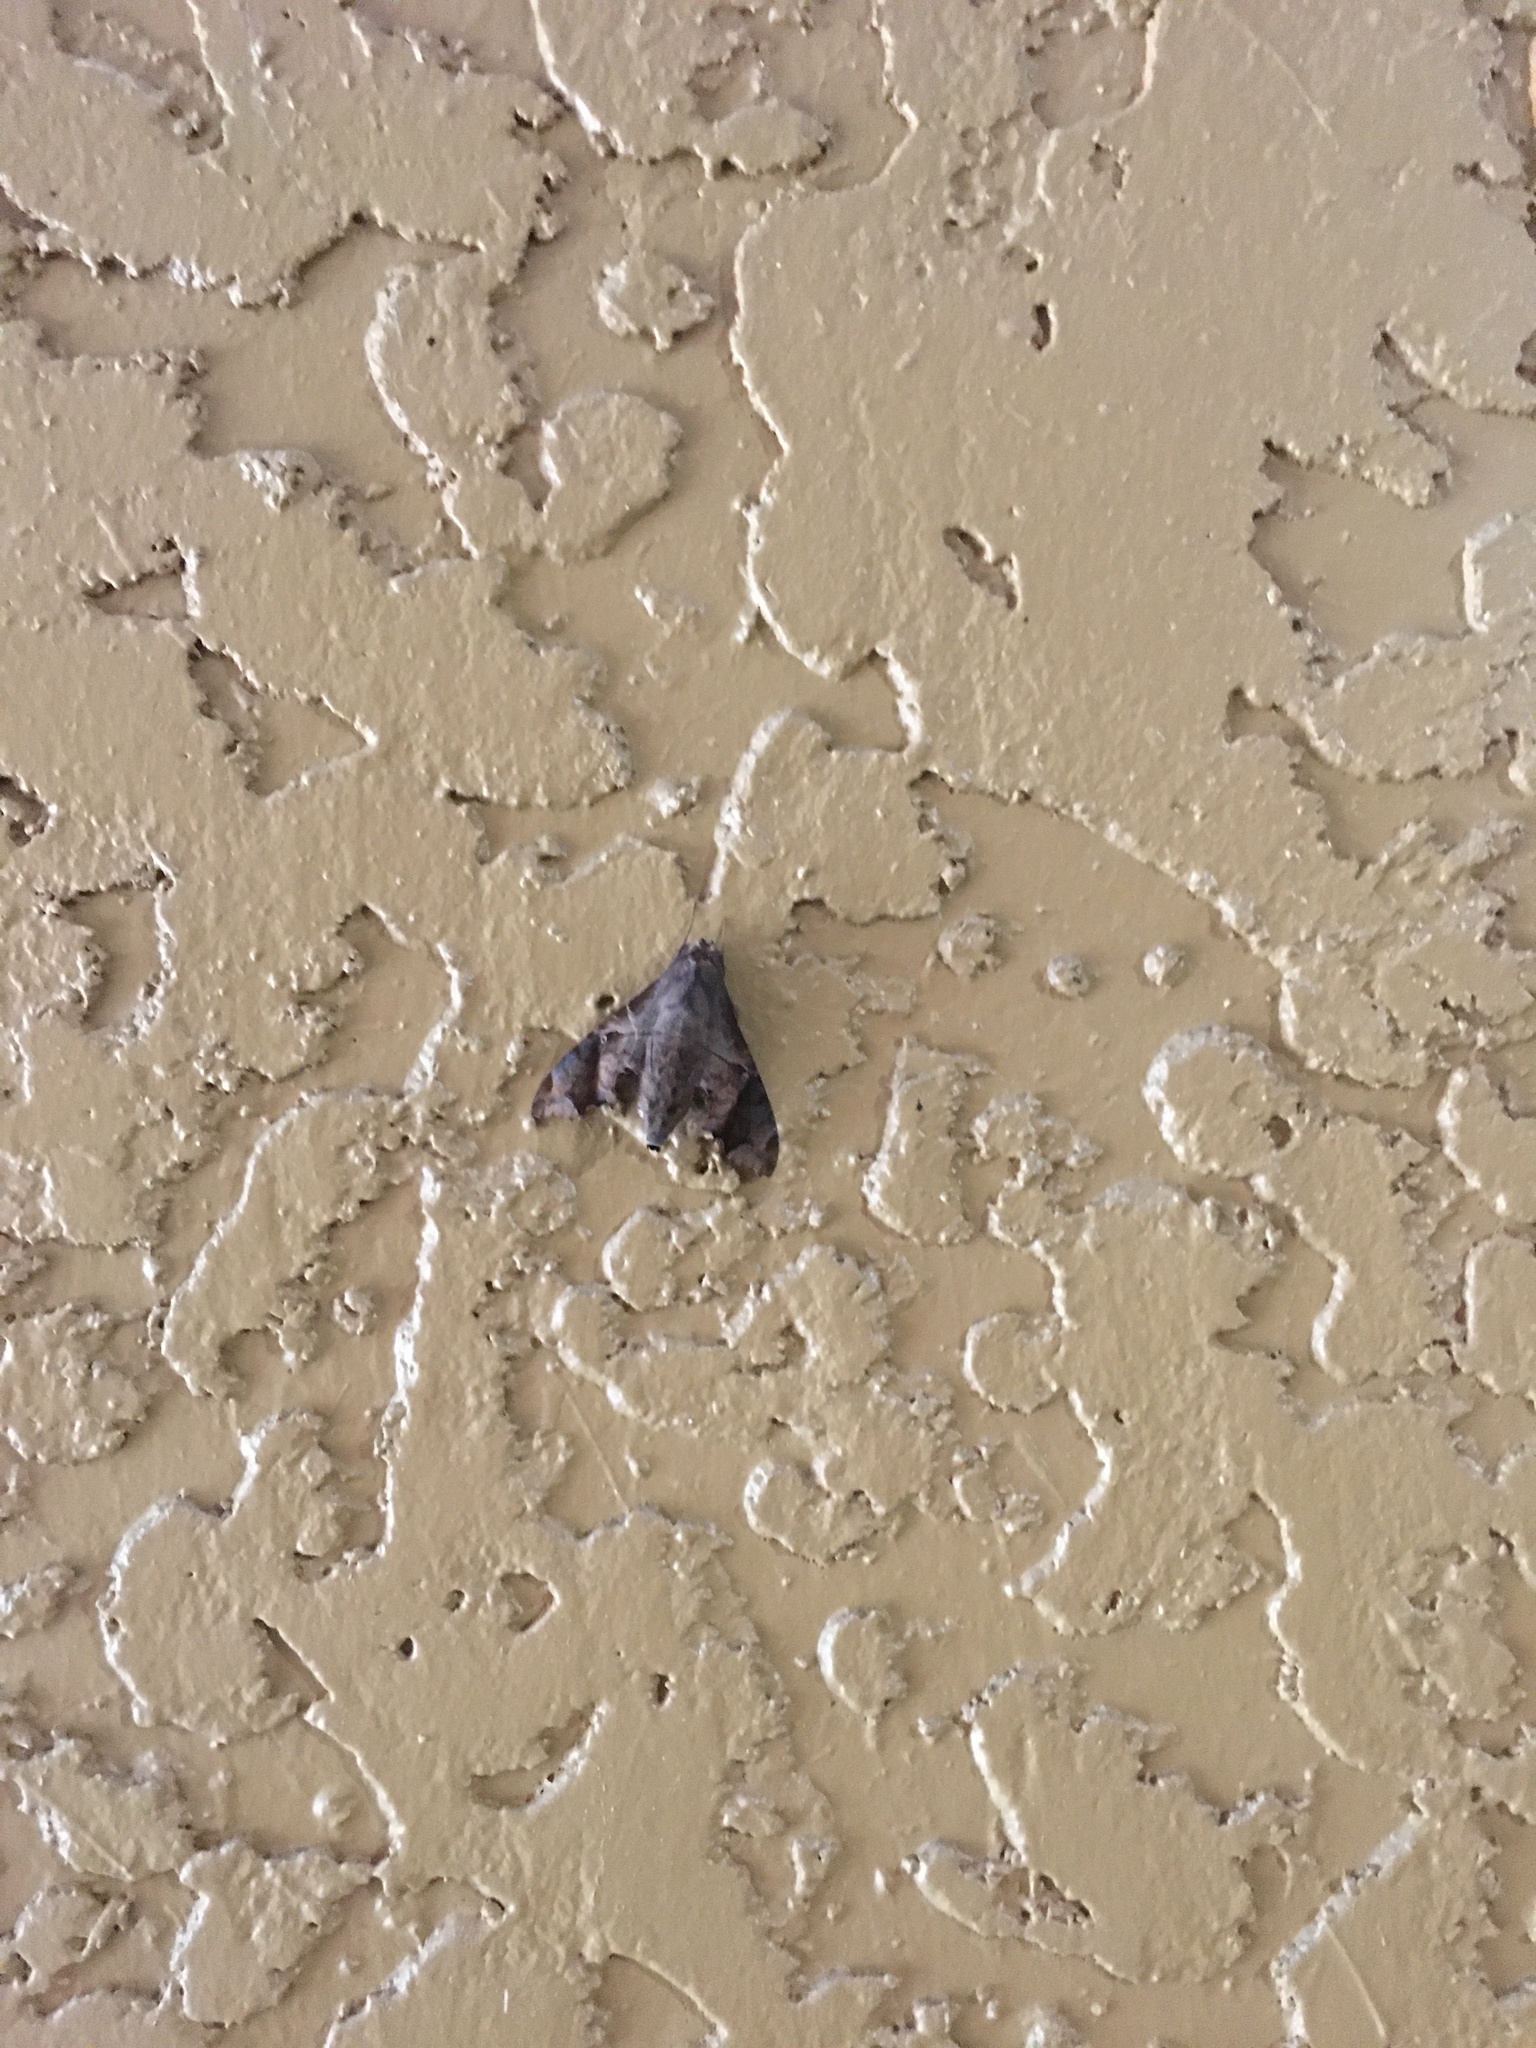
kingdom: Animalia
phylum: Arthropoda
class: Insecta
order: Lepidoptera
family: Sphingidae
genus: Enyo
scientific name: Enyo lugubris
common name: Mournful sphinx
